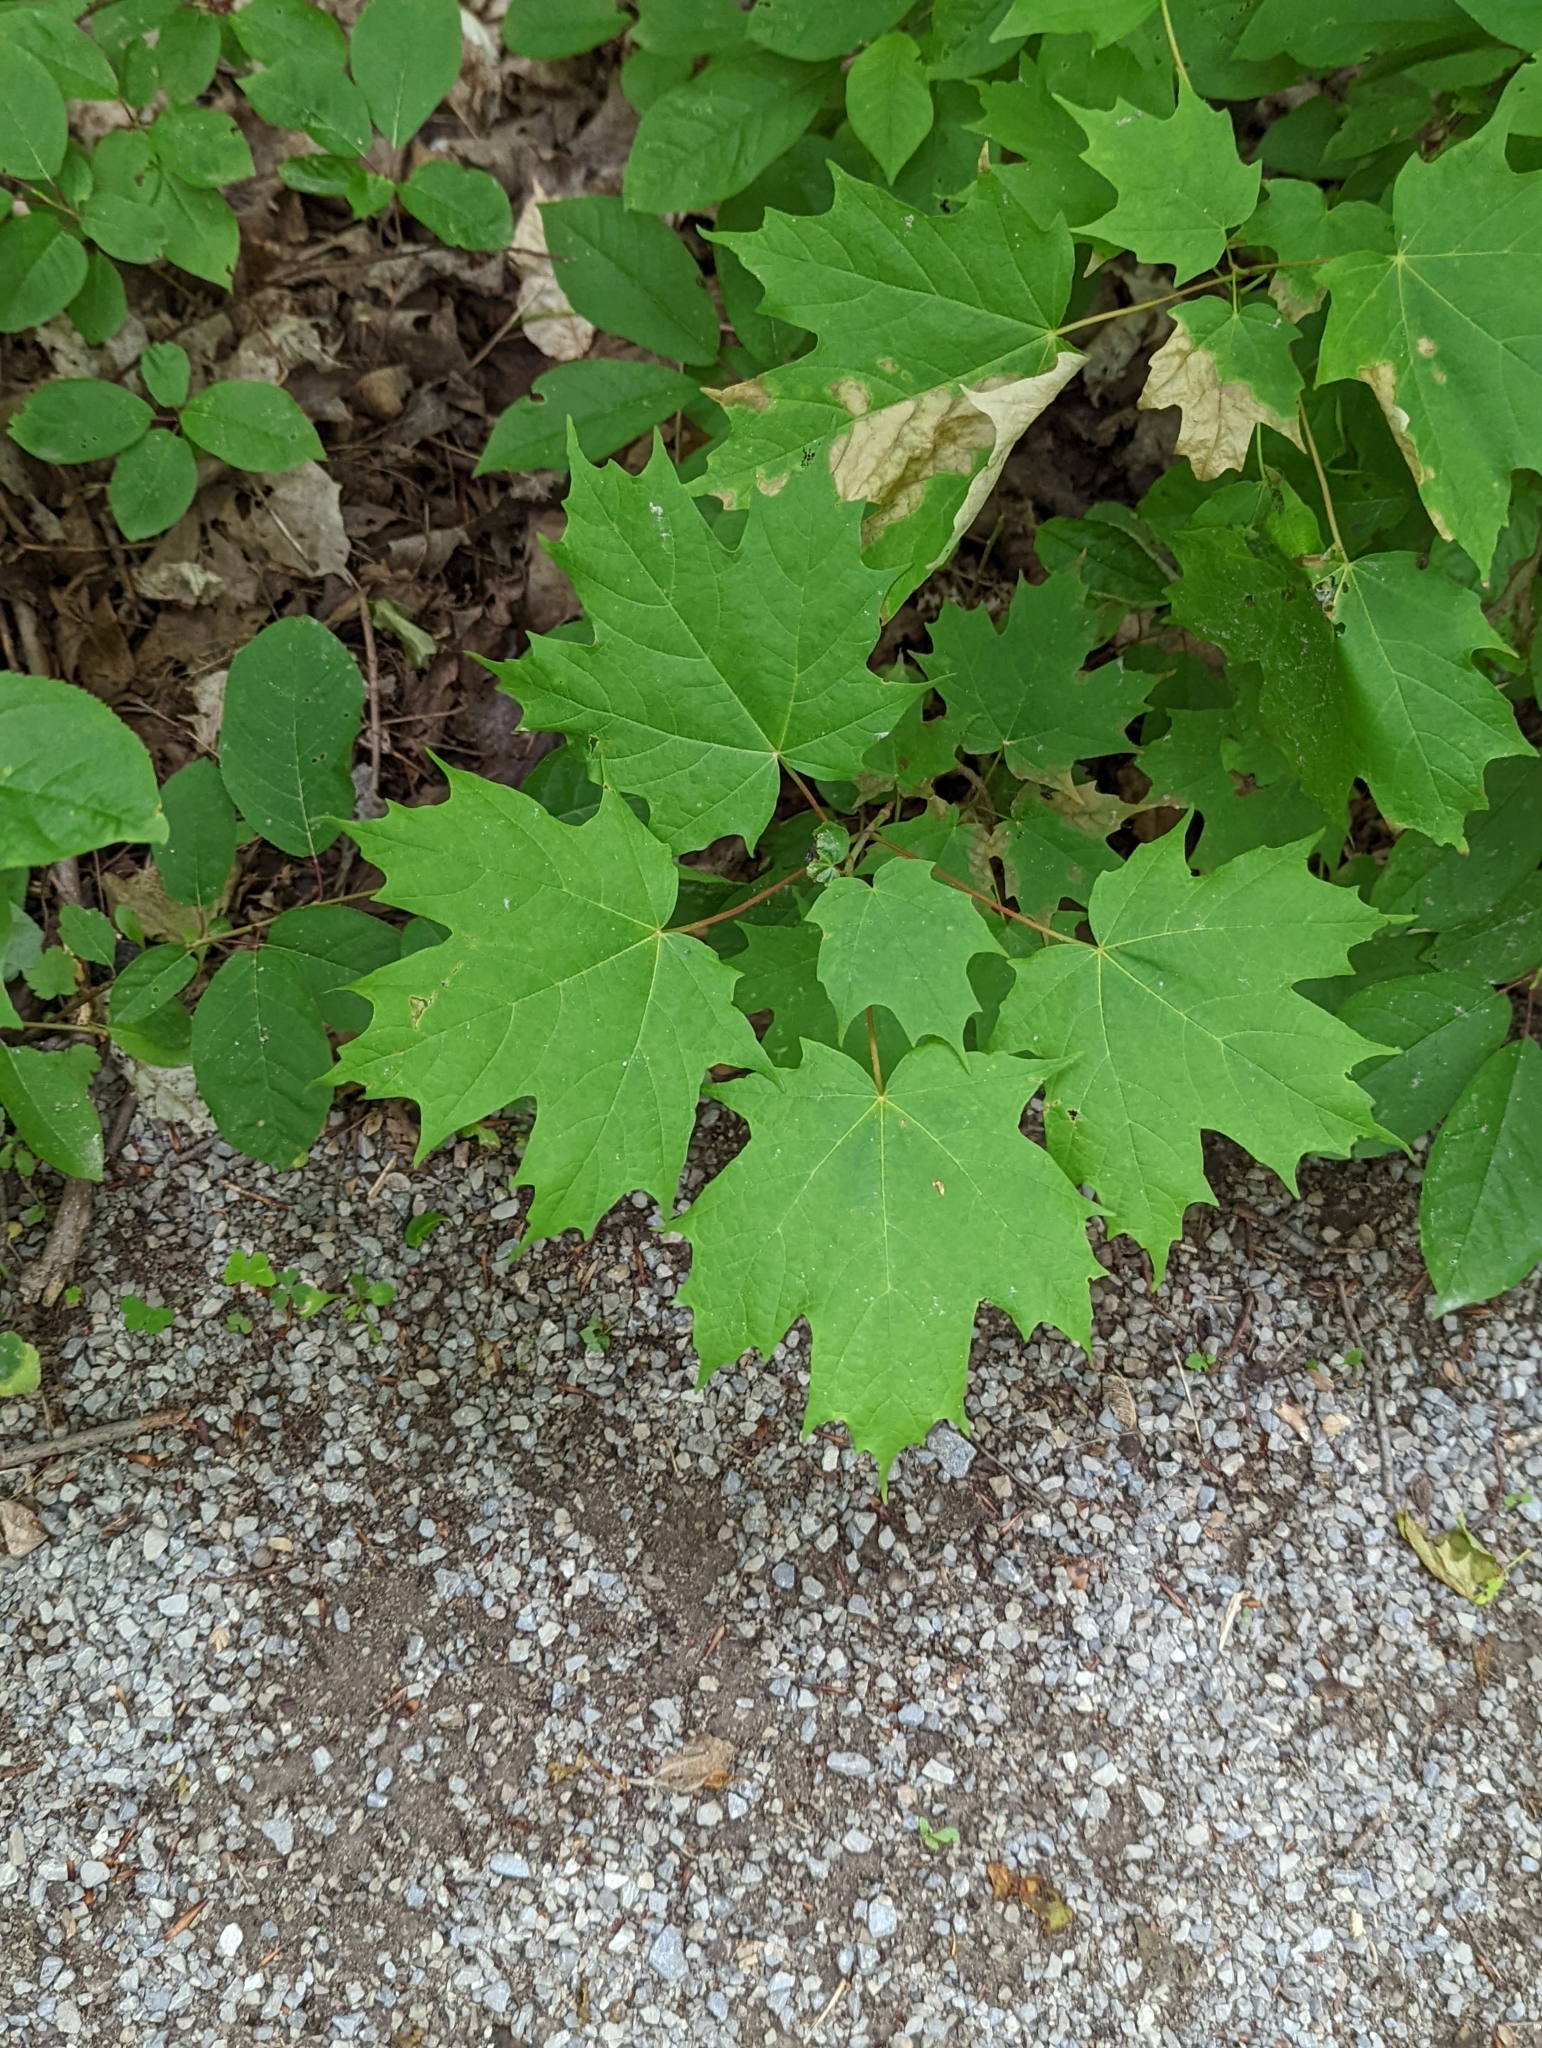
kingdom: Plantae
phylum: Tracheophyta
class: Magnoliopsida
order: Sapindales
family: Sapindaceae
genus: Acer
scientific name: Acer saccharum
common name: Sugar maple
